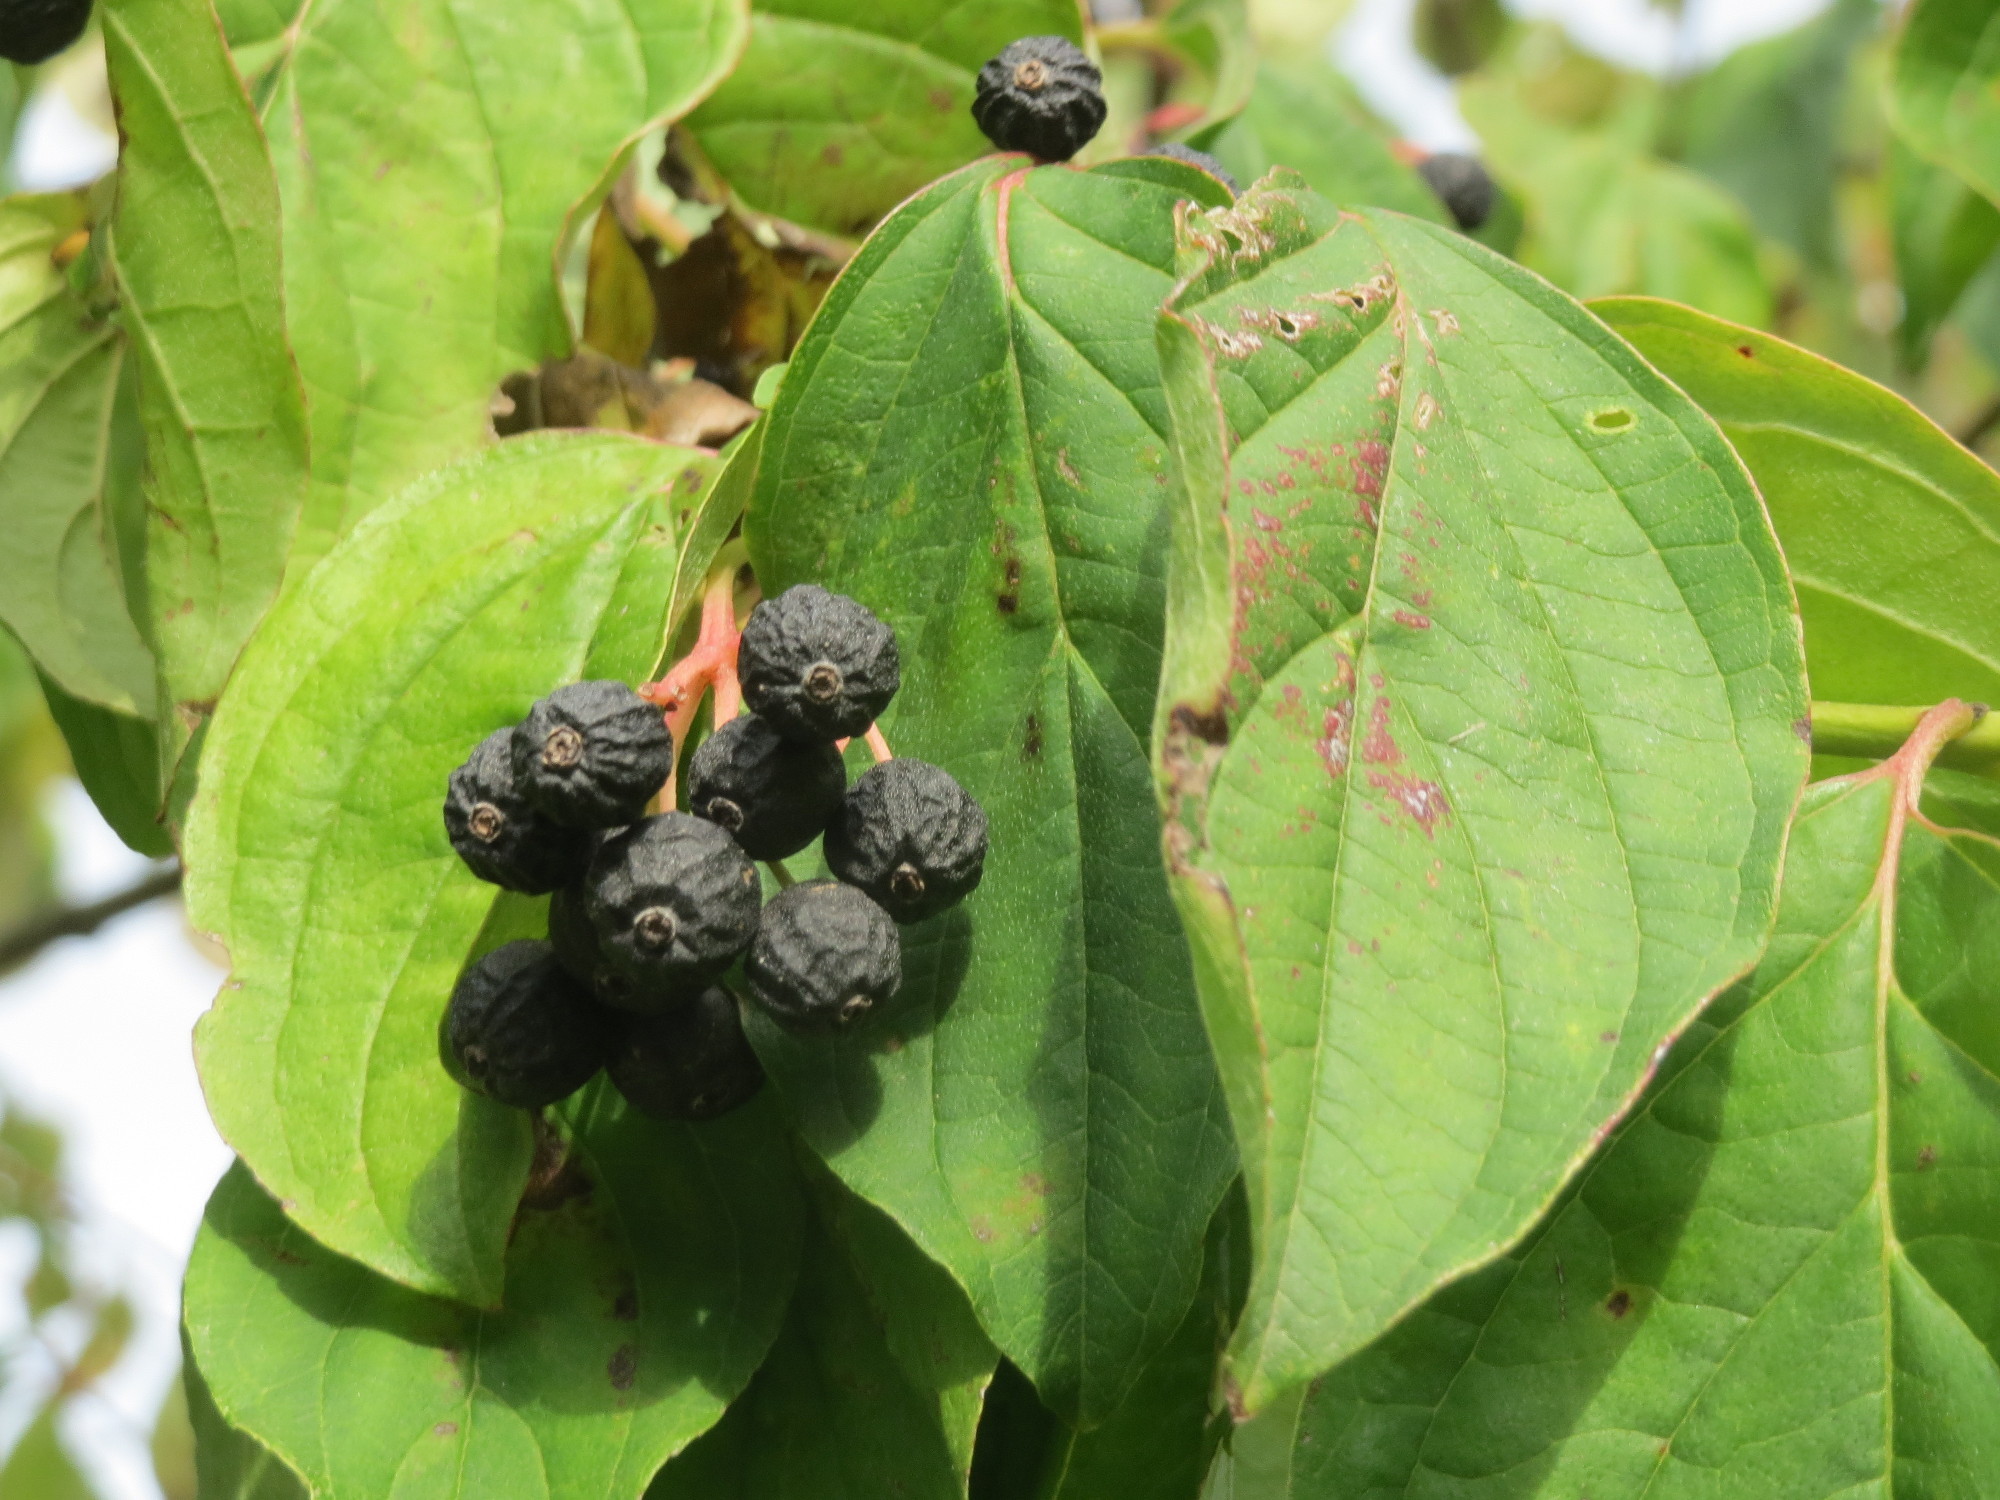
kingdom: Plantae
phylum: Tracheophyta
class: Magnoliopsida
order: Cornales
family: Cornaceae
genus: Cornus
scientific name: Cornus sanguinea
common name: Dogwood
